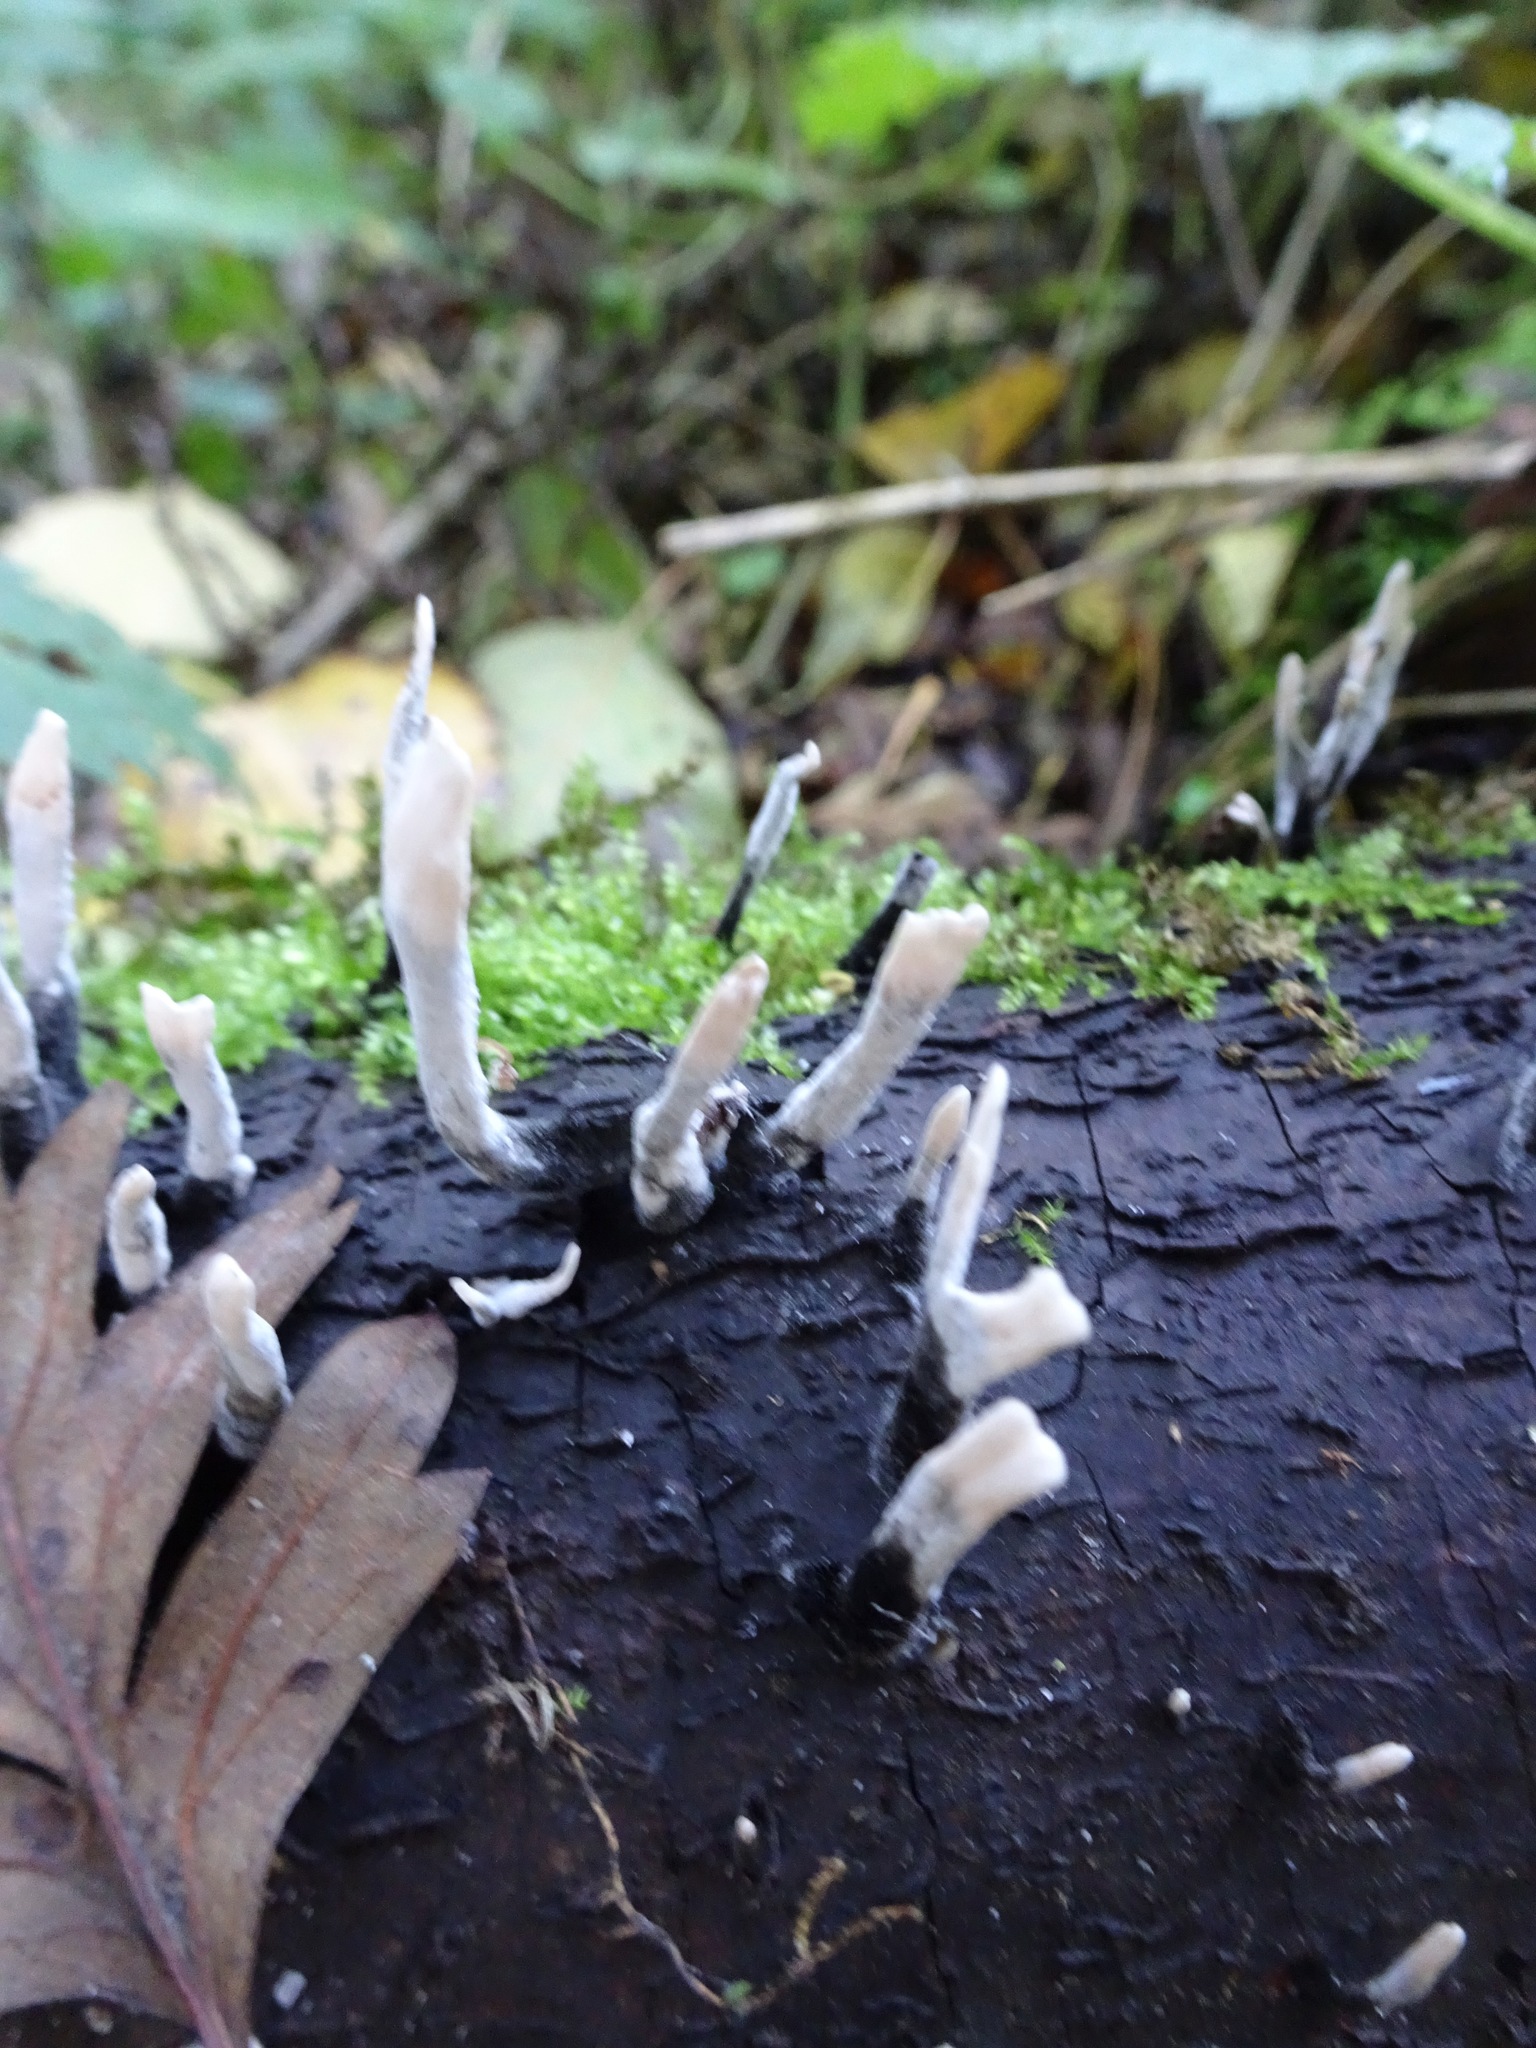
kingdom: Fungi
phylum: Ascomycota
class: Sordariomycetes
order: Xylariales
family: Xylariaceae
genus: Xylaria
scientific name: Xylaria hypoxylon
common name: Candle-snuff fungus
